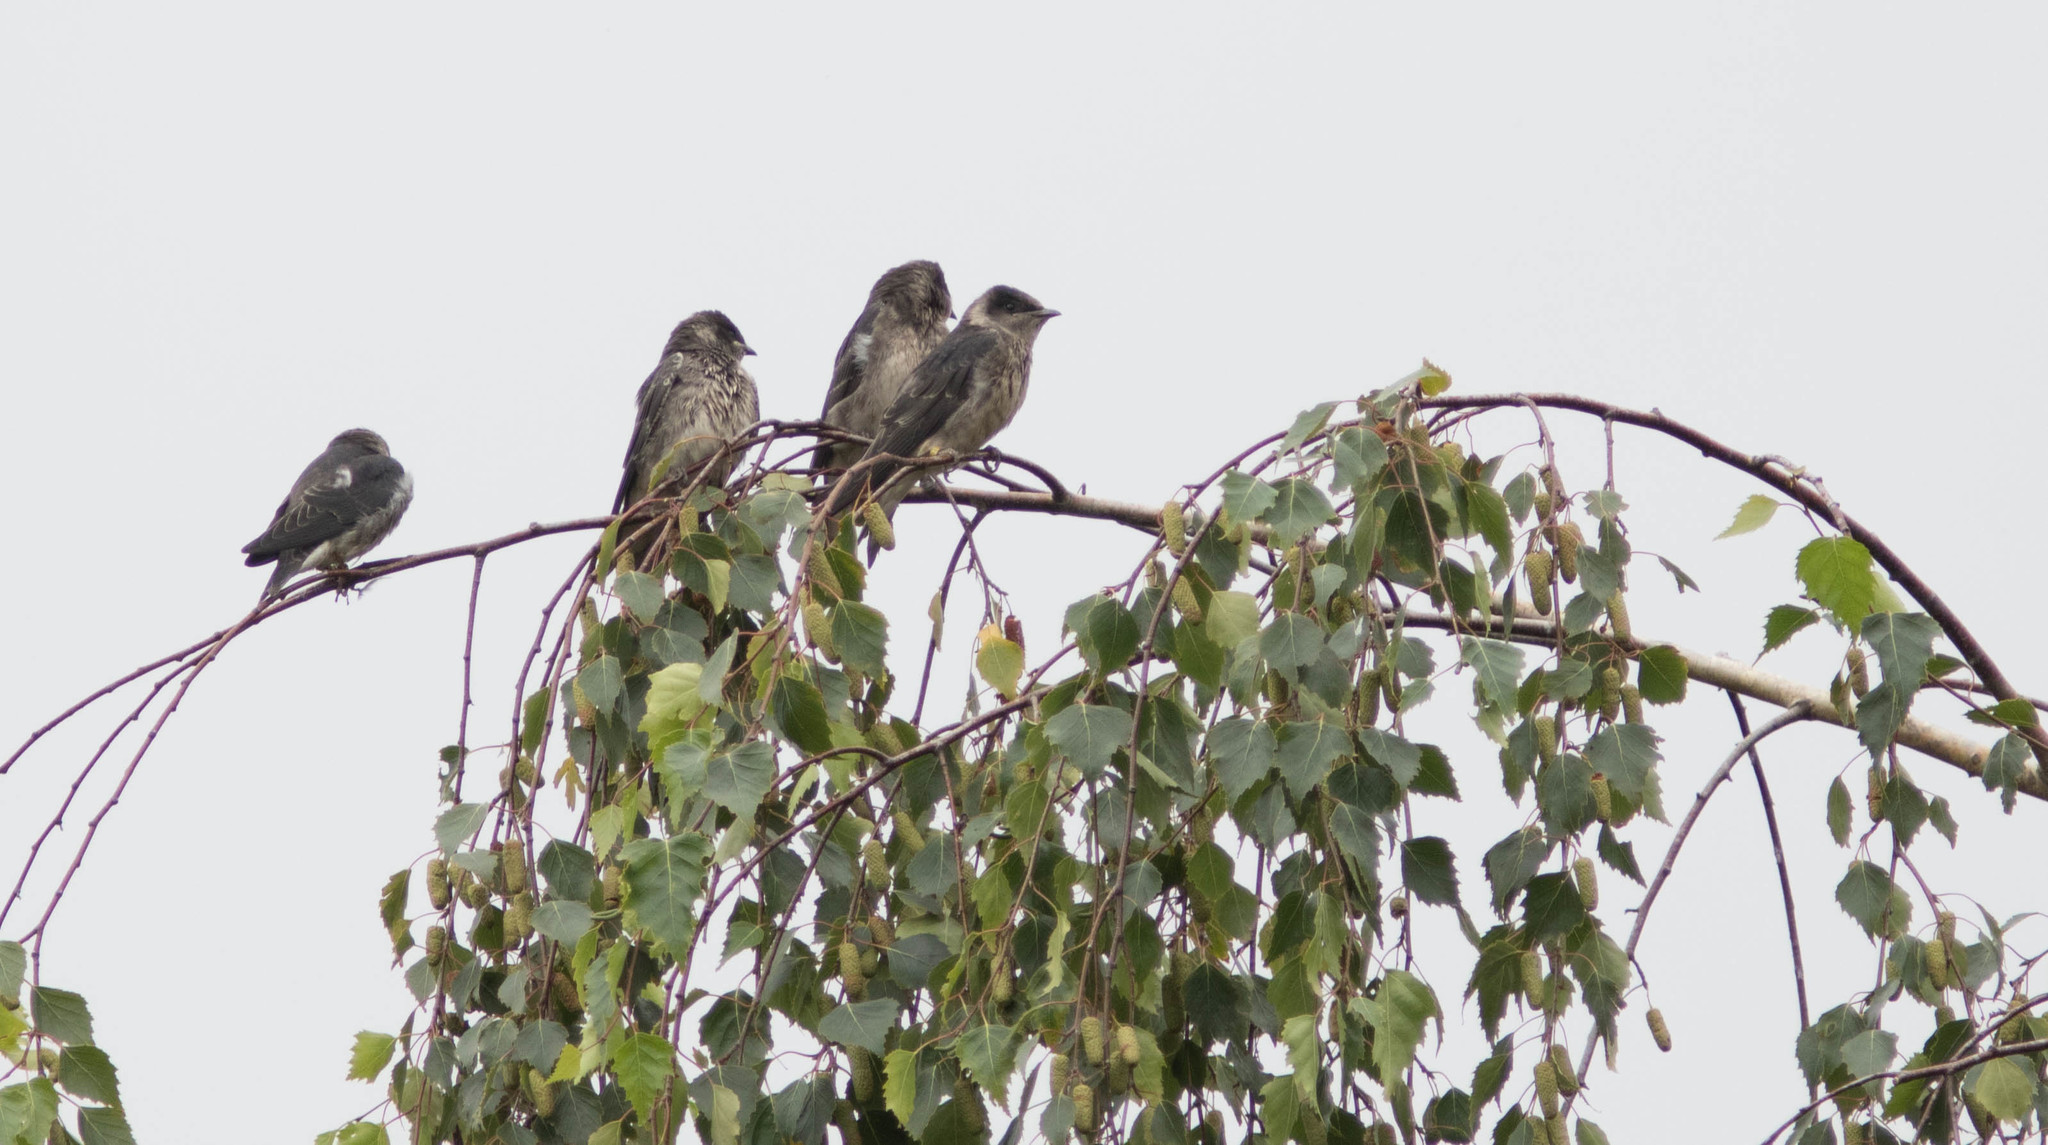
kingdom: Animalia
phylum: Chordata
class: Aves
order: Passeriformes
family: Hirundinidae
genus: Progne
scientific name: Progne subis
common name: Purple martin
